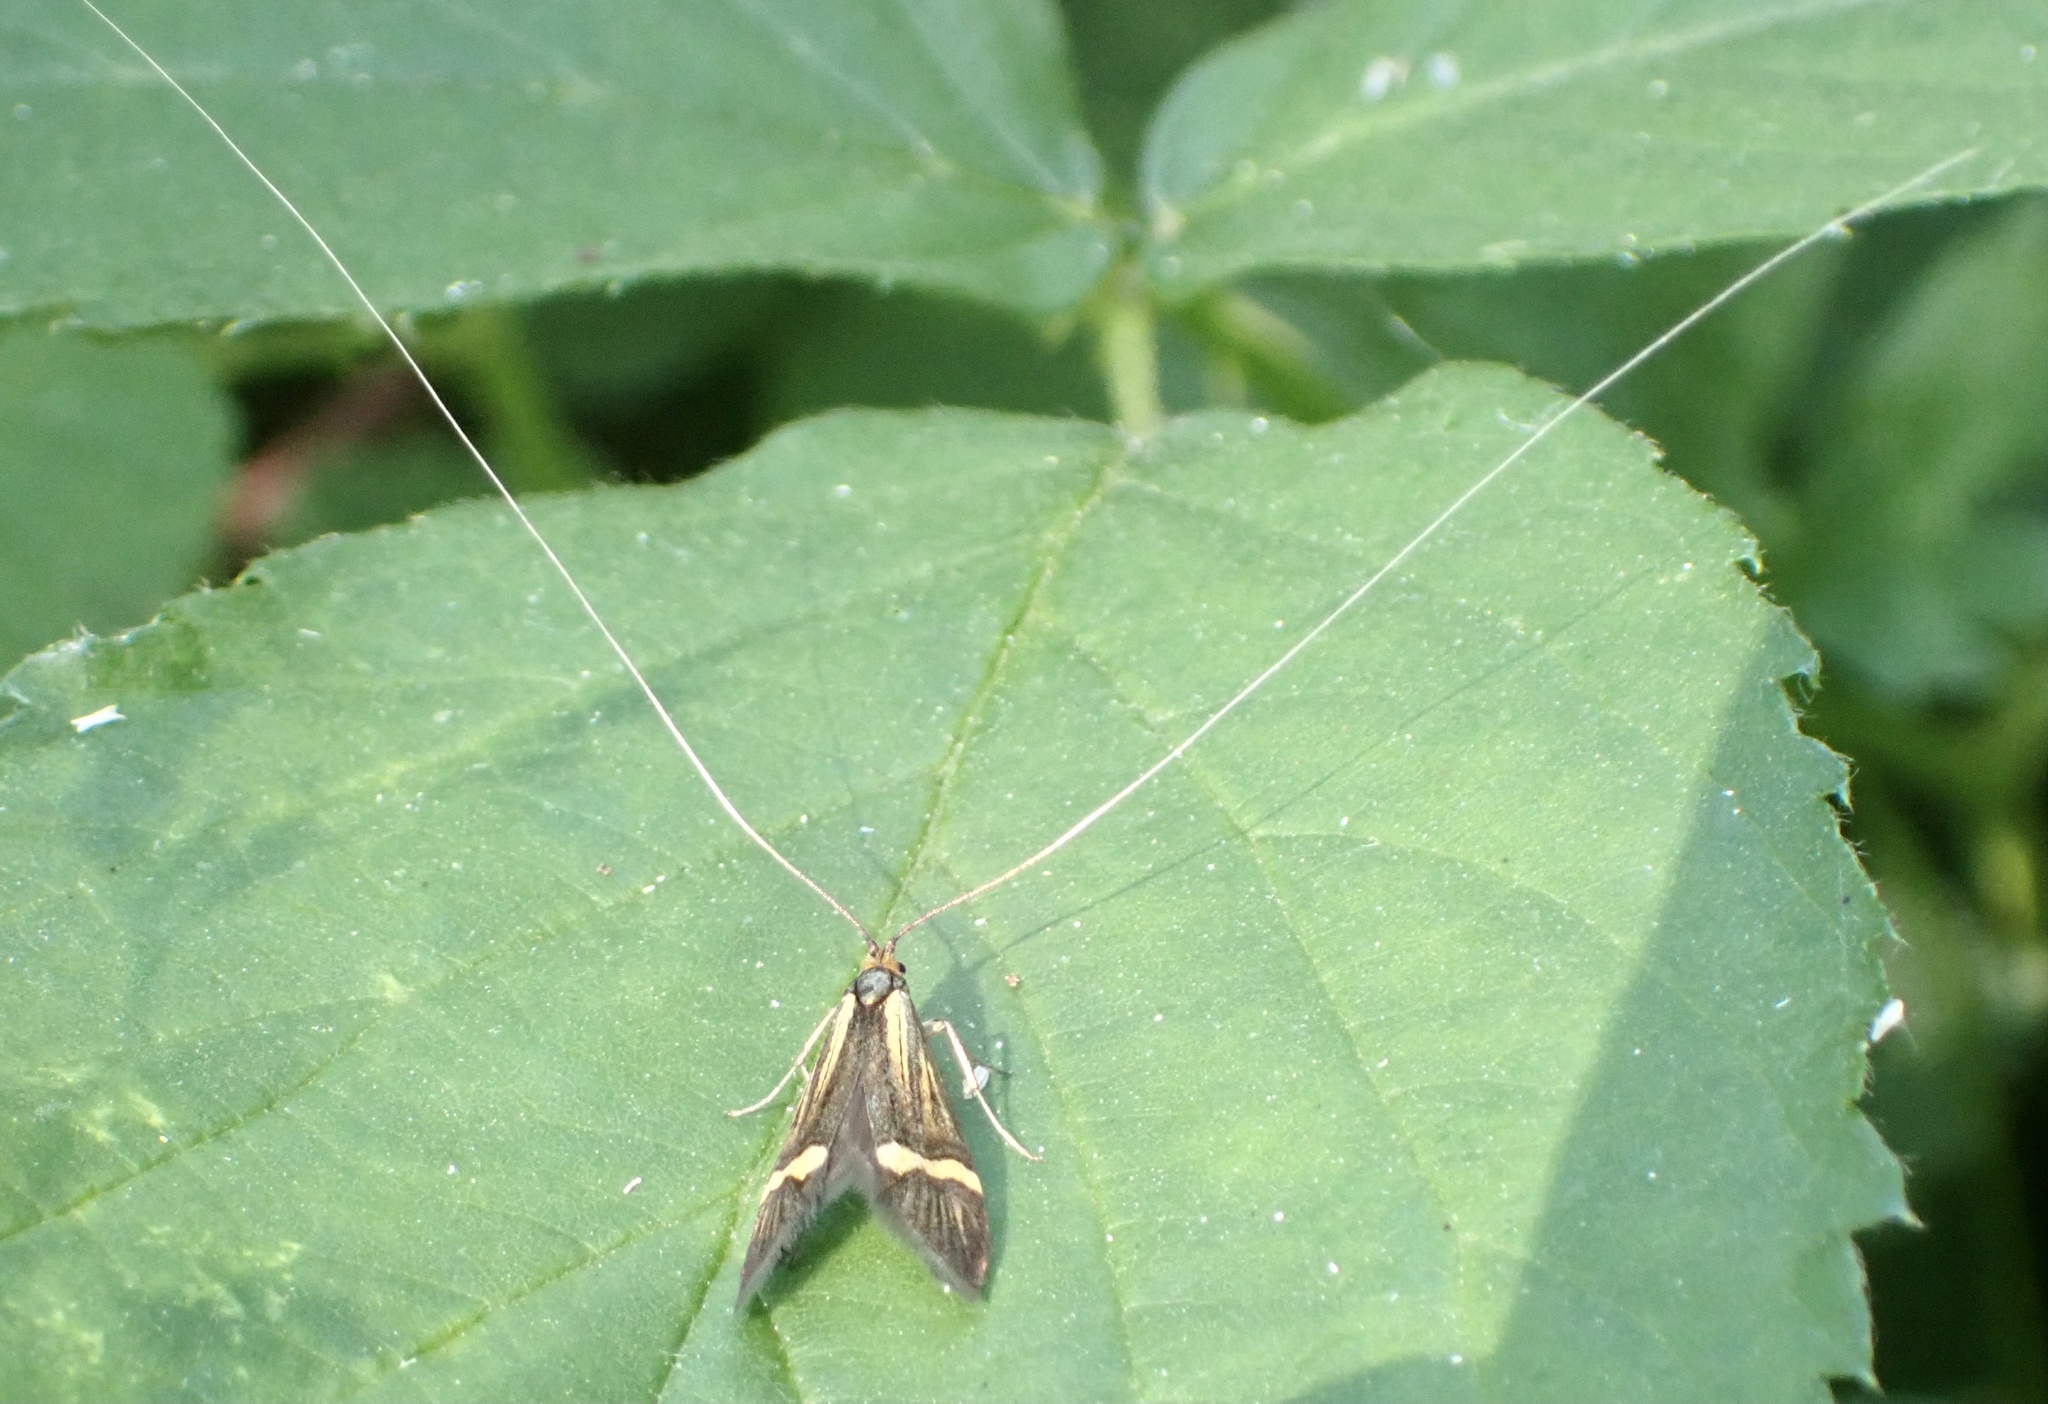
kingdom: Animalia
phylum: Arthropoda
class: Insecta
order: Lepidoptera
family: Adelidae
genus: Nemophora
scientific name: Nemophora degeerella
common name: Yellow-barred long-horn
